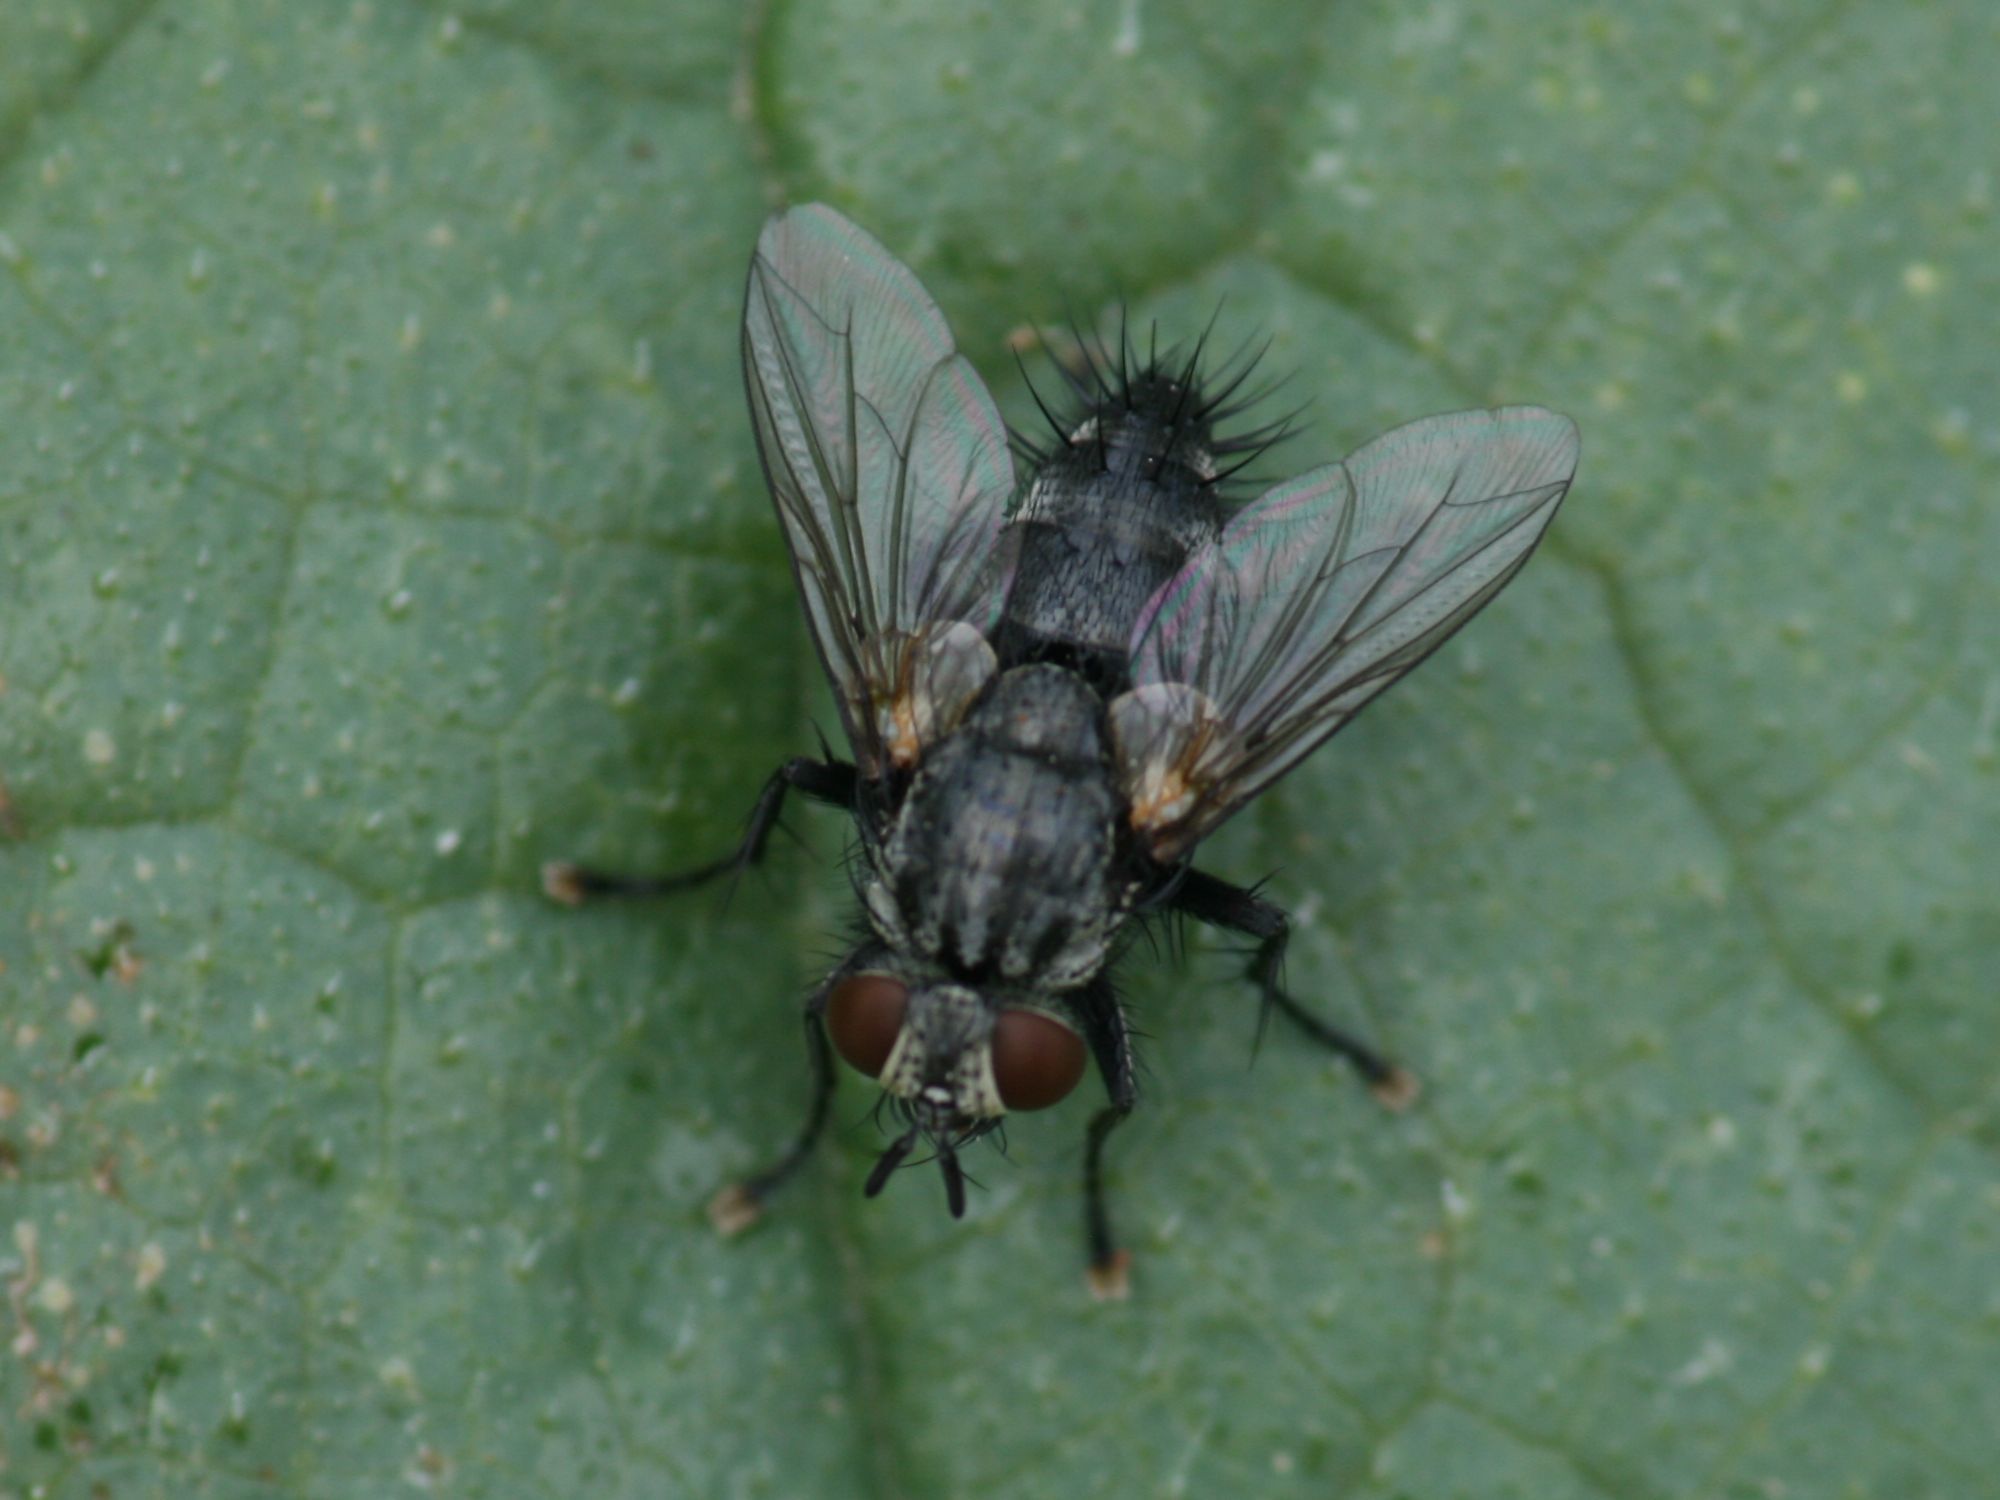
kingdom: Animalia
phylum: Arthropoda
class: Insecta
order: Diptera
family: Tachinidae
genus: Voria
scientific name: Voria ruralis
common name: Parasitic fly
